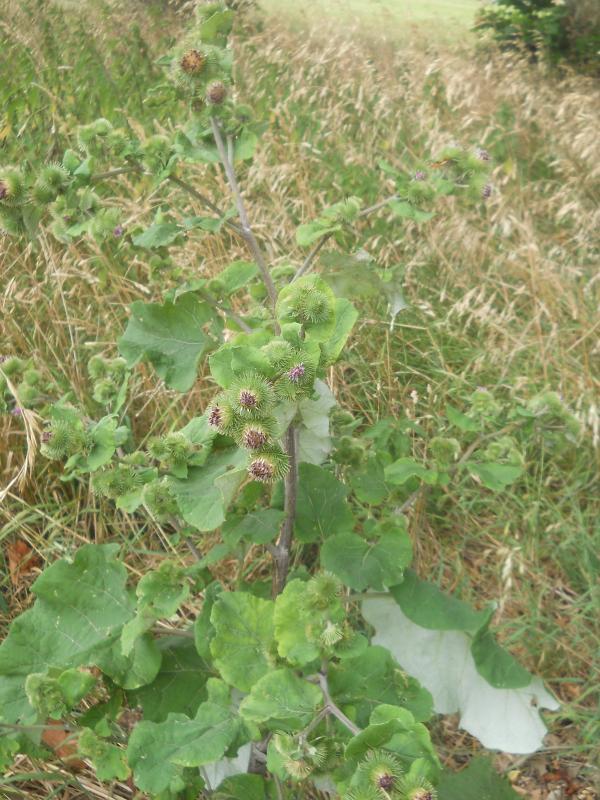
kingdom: Plantae
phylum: Tracheophyta
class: Magnoliopsida
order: Asterales
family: Asteraceae
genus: Arctium
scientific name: Arctium nemorosum
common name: Wood burdock
